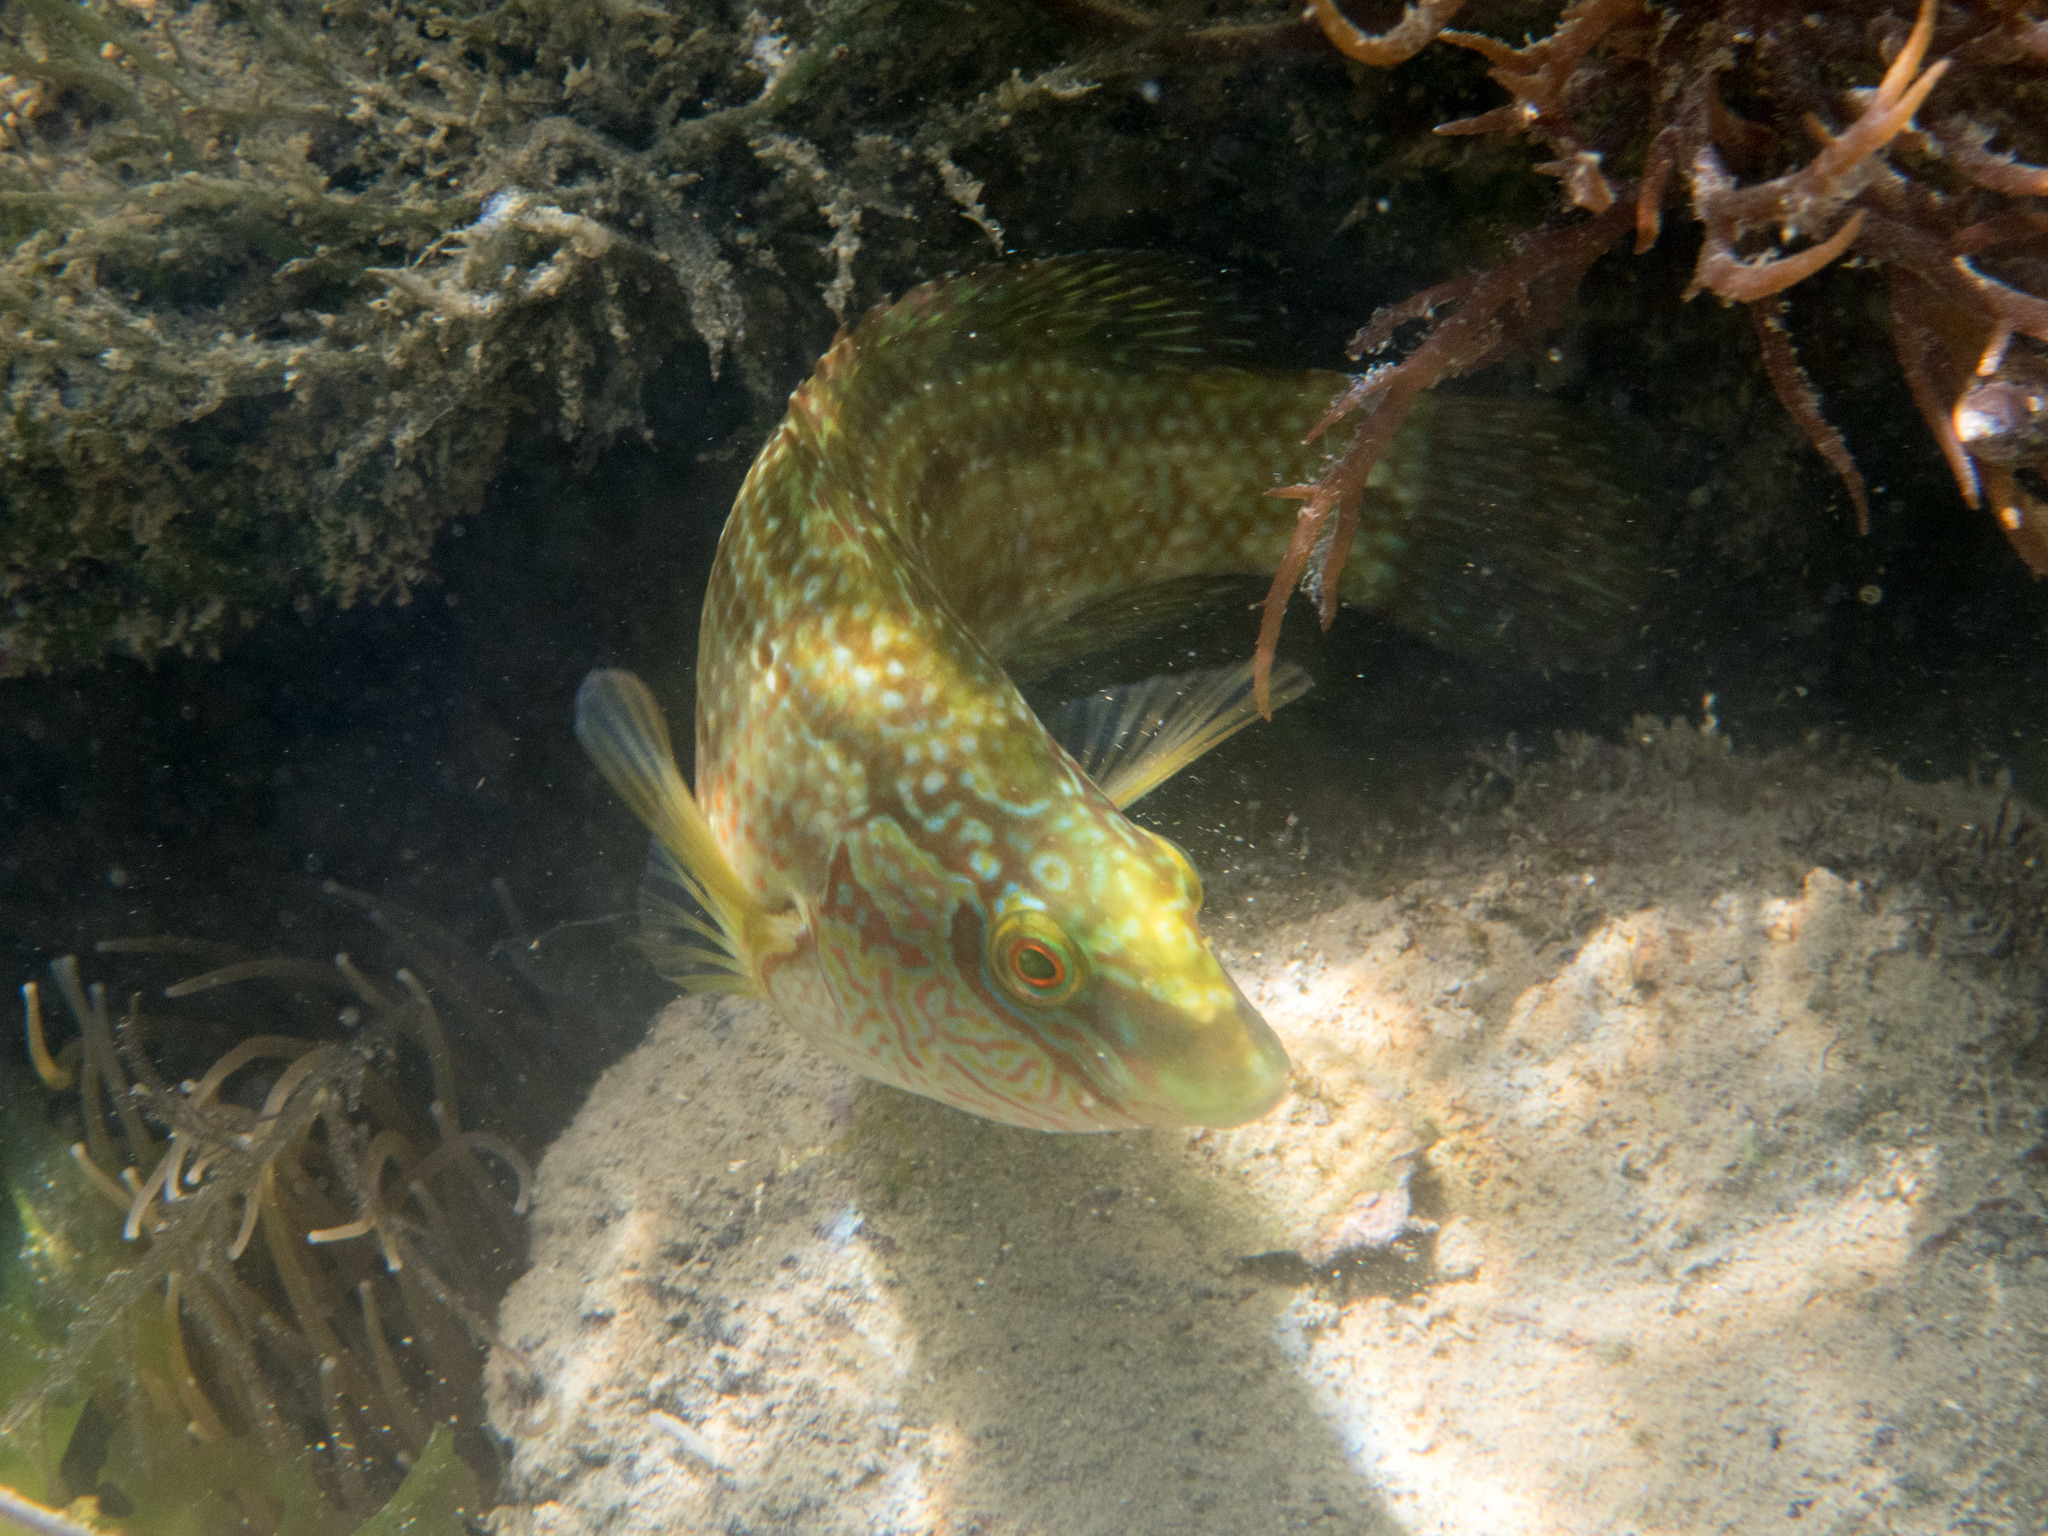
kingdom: Animalia
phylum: Chordata
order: Perciformes
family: Labridae
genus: Symphodus
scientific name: Symphodus melops
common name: Corkwing
